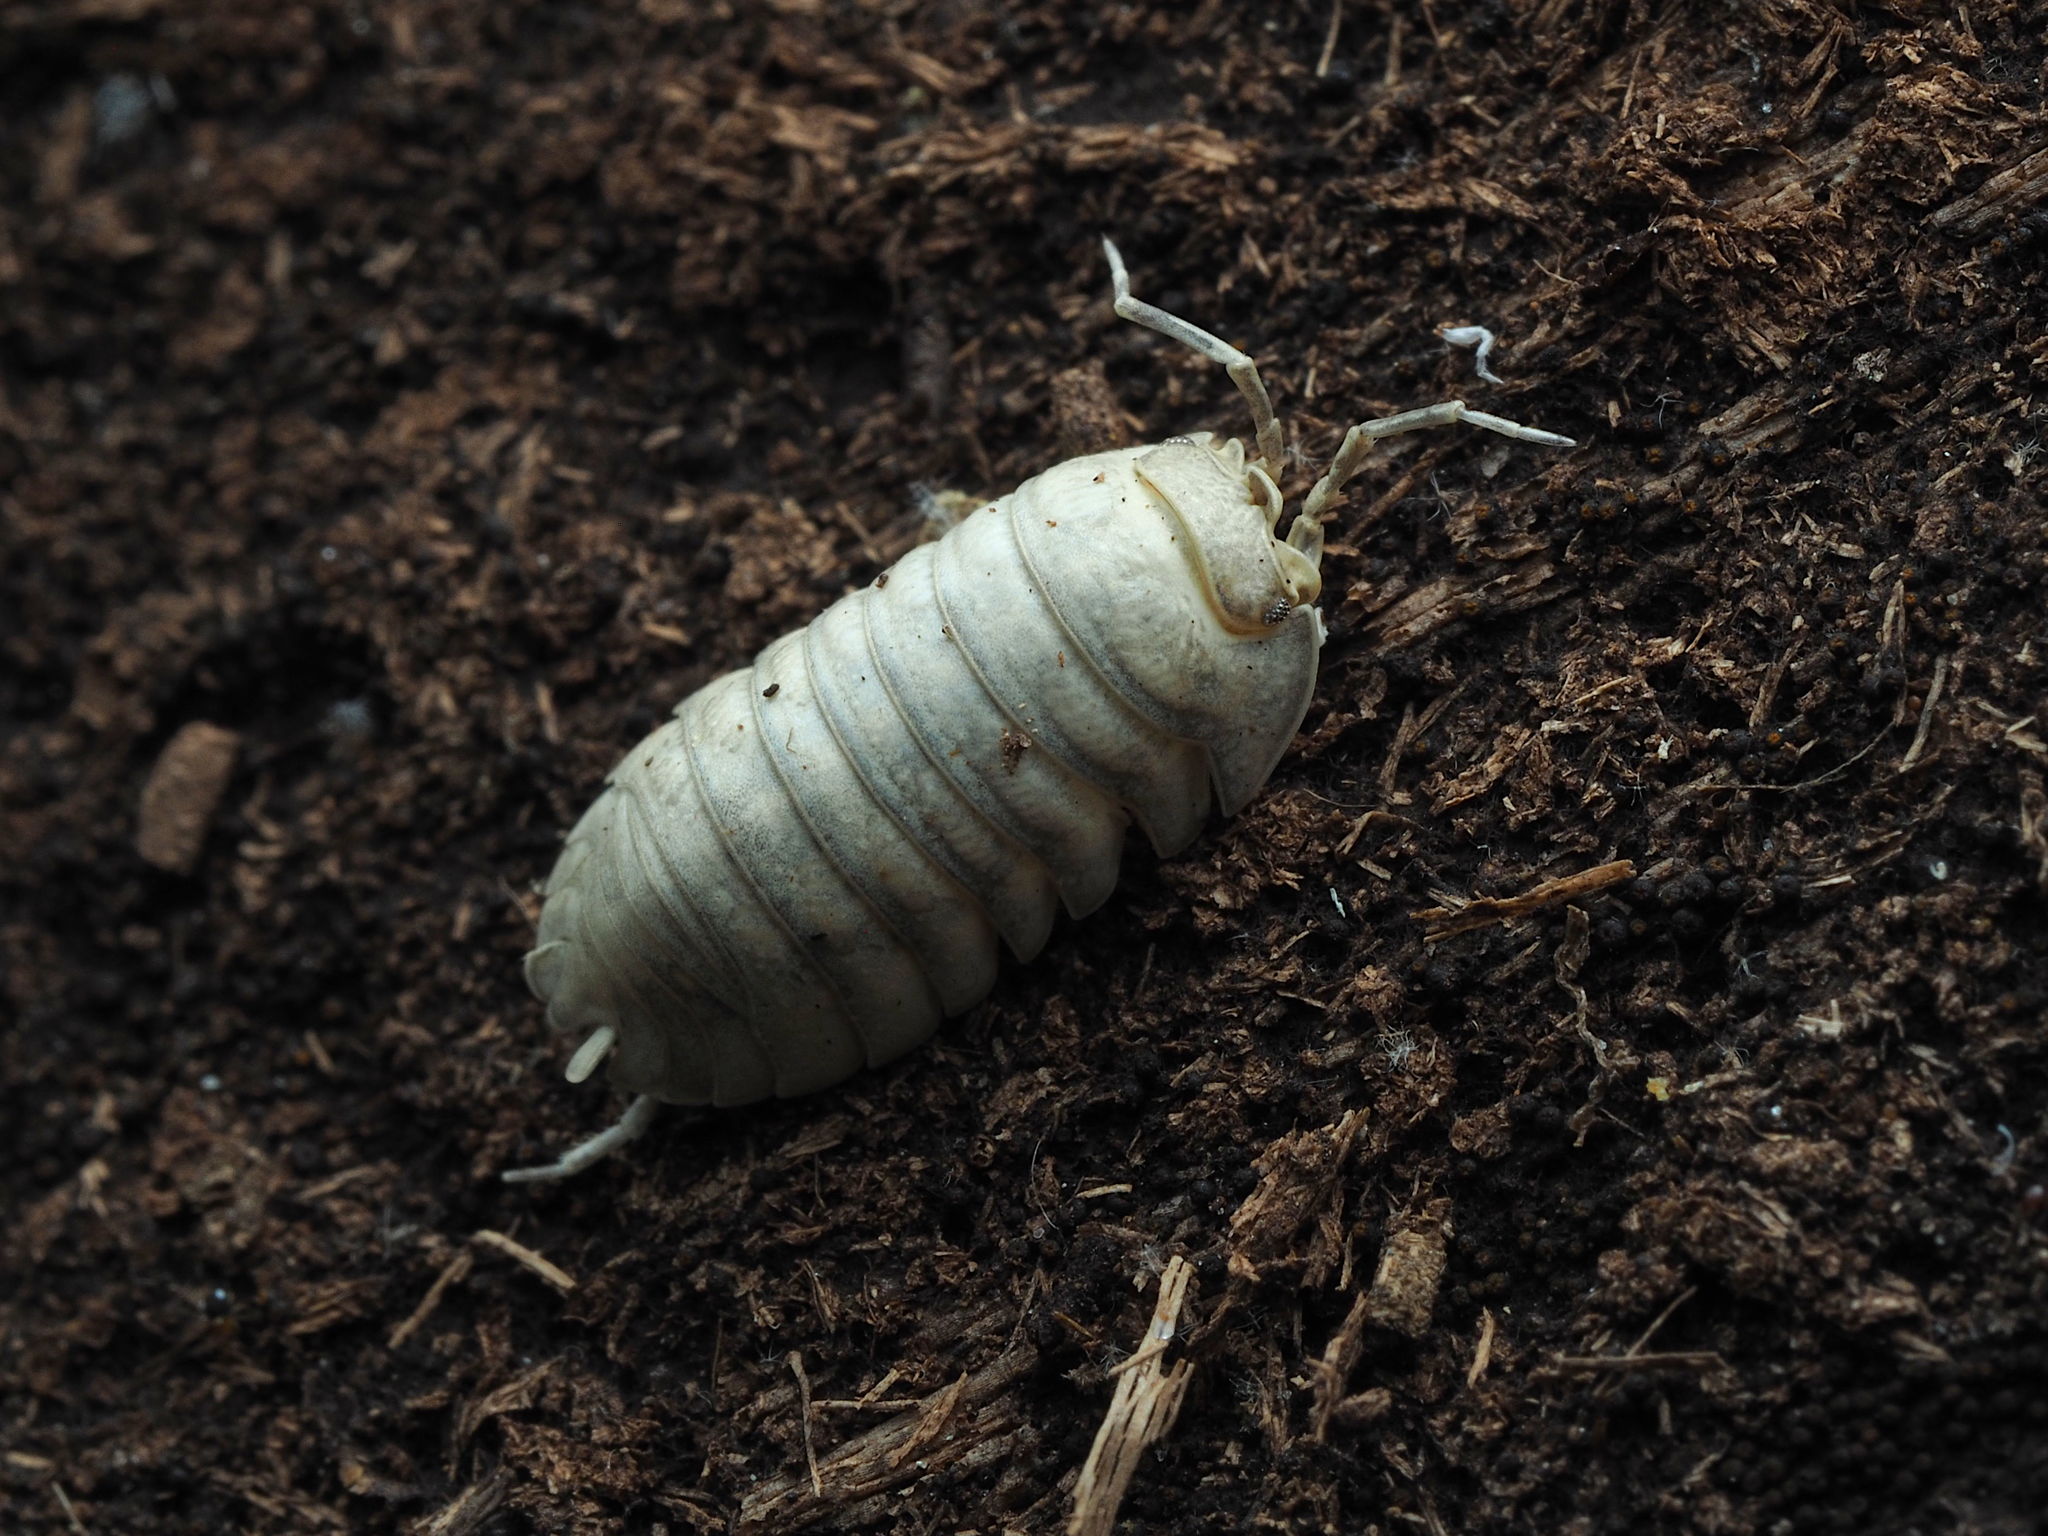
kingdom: Animalia
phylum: Arthropoda
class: Malacostraca
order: Isopoda
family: Armadillidiidae
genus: Armadillidium
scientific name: Armadillidium nasatum
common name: Isopod
